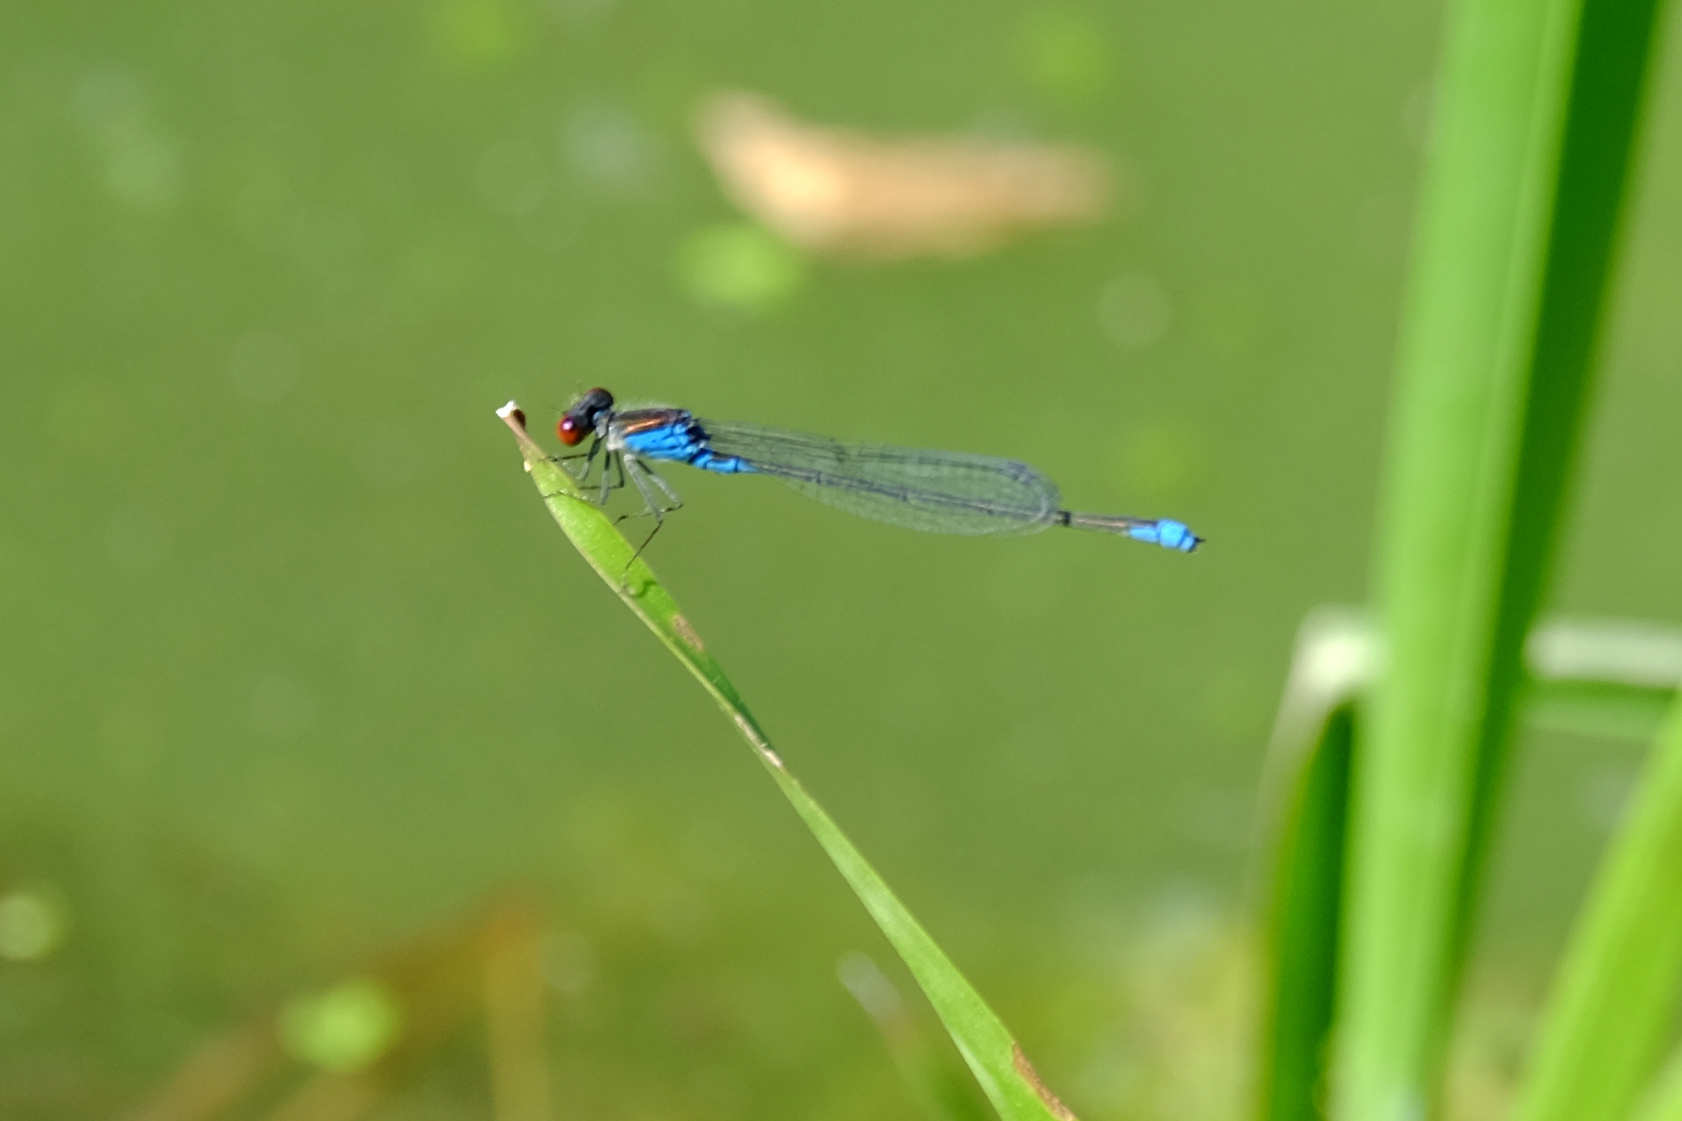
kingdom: Animalia
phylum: Arthropoda
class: Insecta
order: Odonata
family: Coenagrionidae
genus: Erythromma
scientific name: Erythromma viridulum
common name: Small red-eyed damselfly
